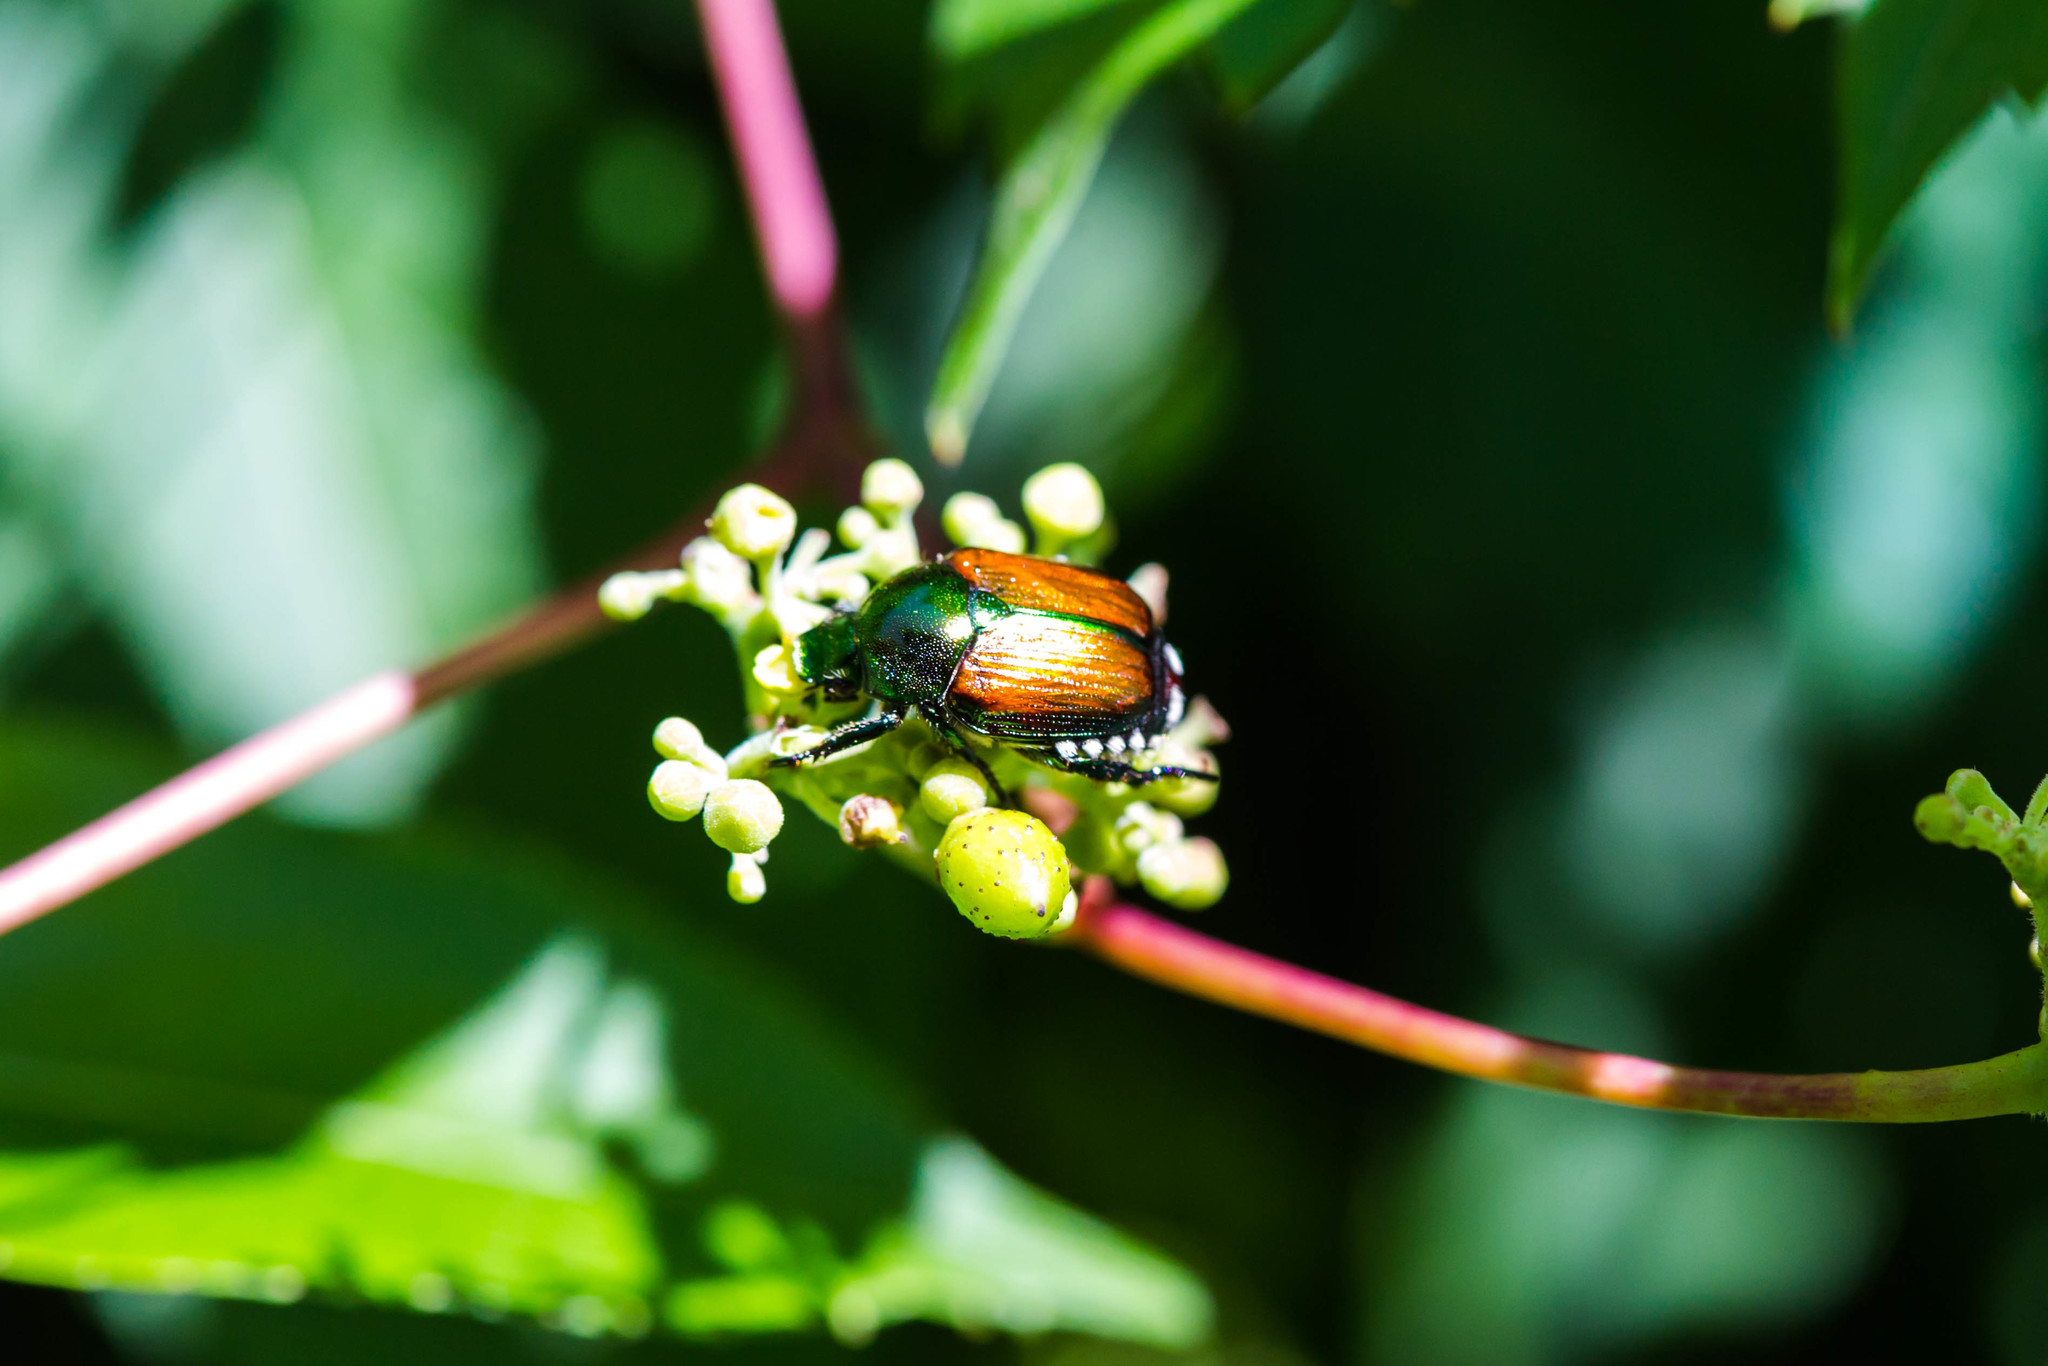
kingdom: Animalia
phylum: Arthropoda
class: Insecta
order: Coleoptera
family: Scarabaeidae
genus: Popillia
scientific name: Popillia japonica
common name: Japanese beetle
